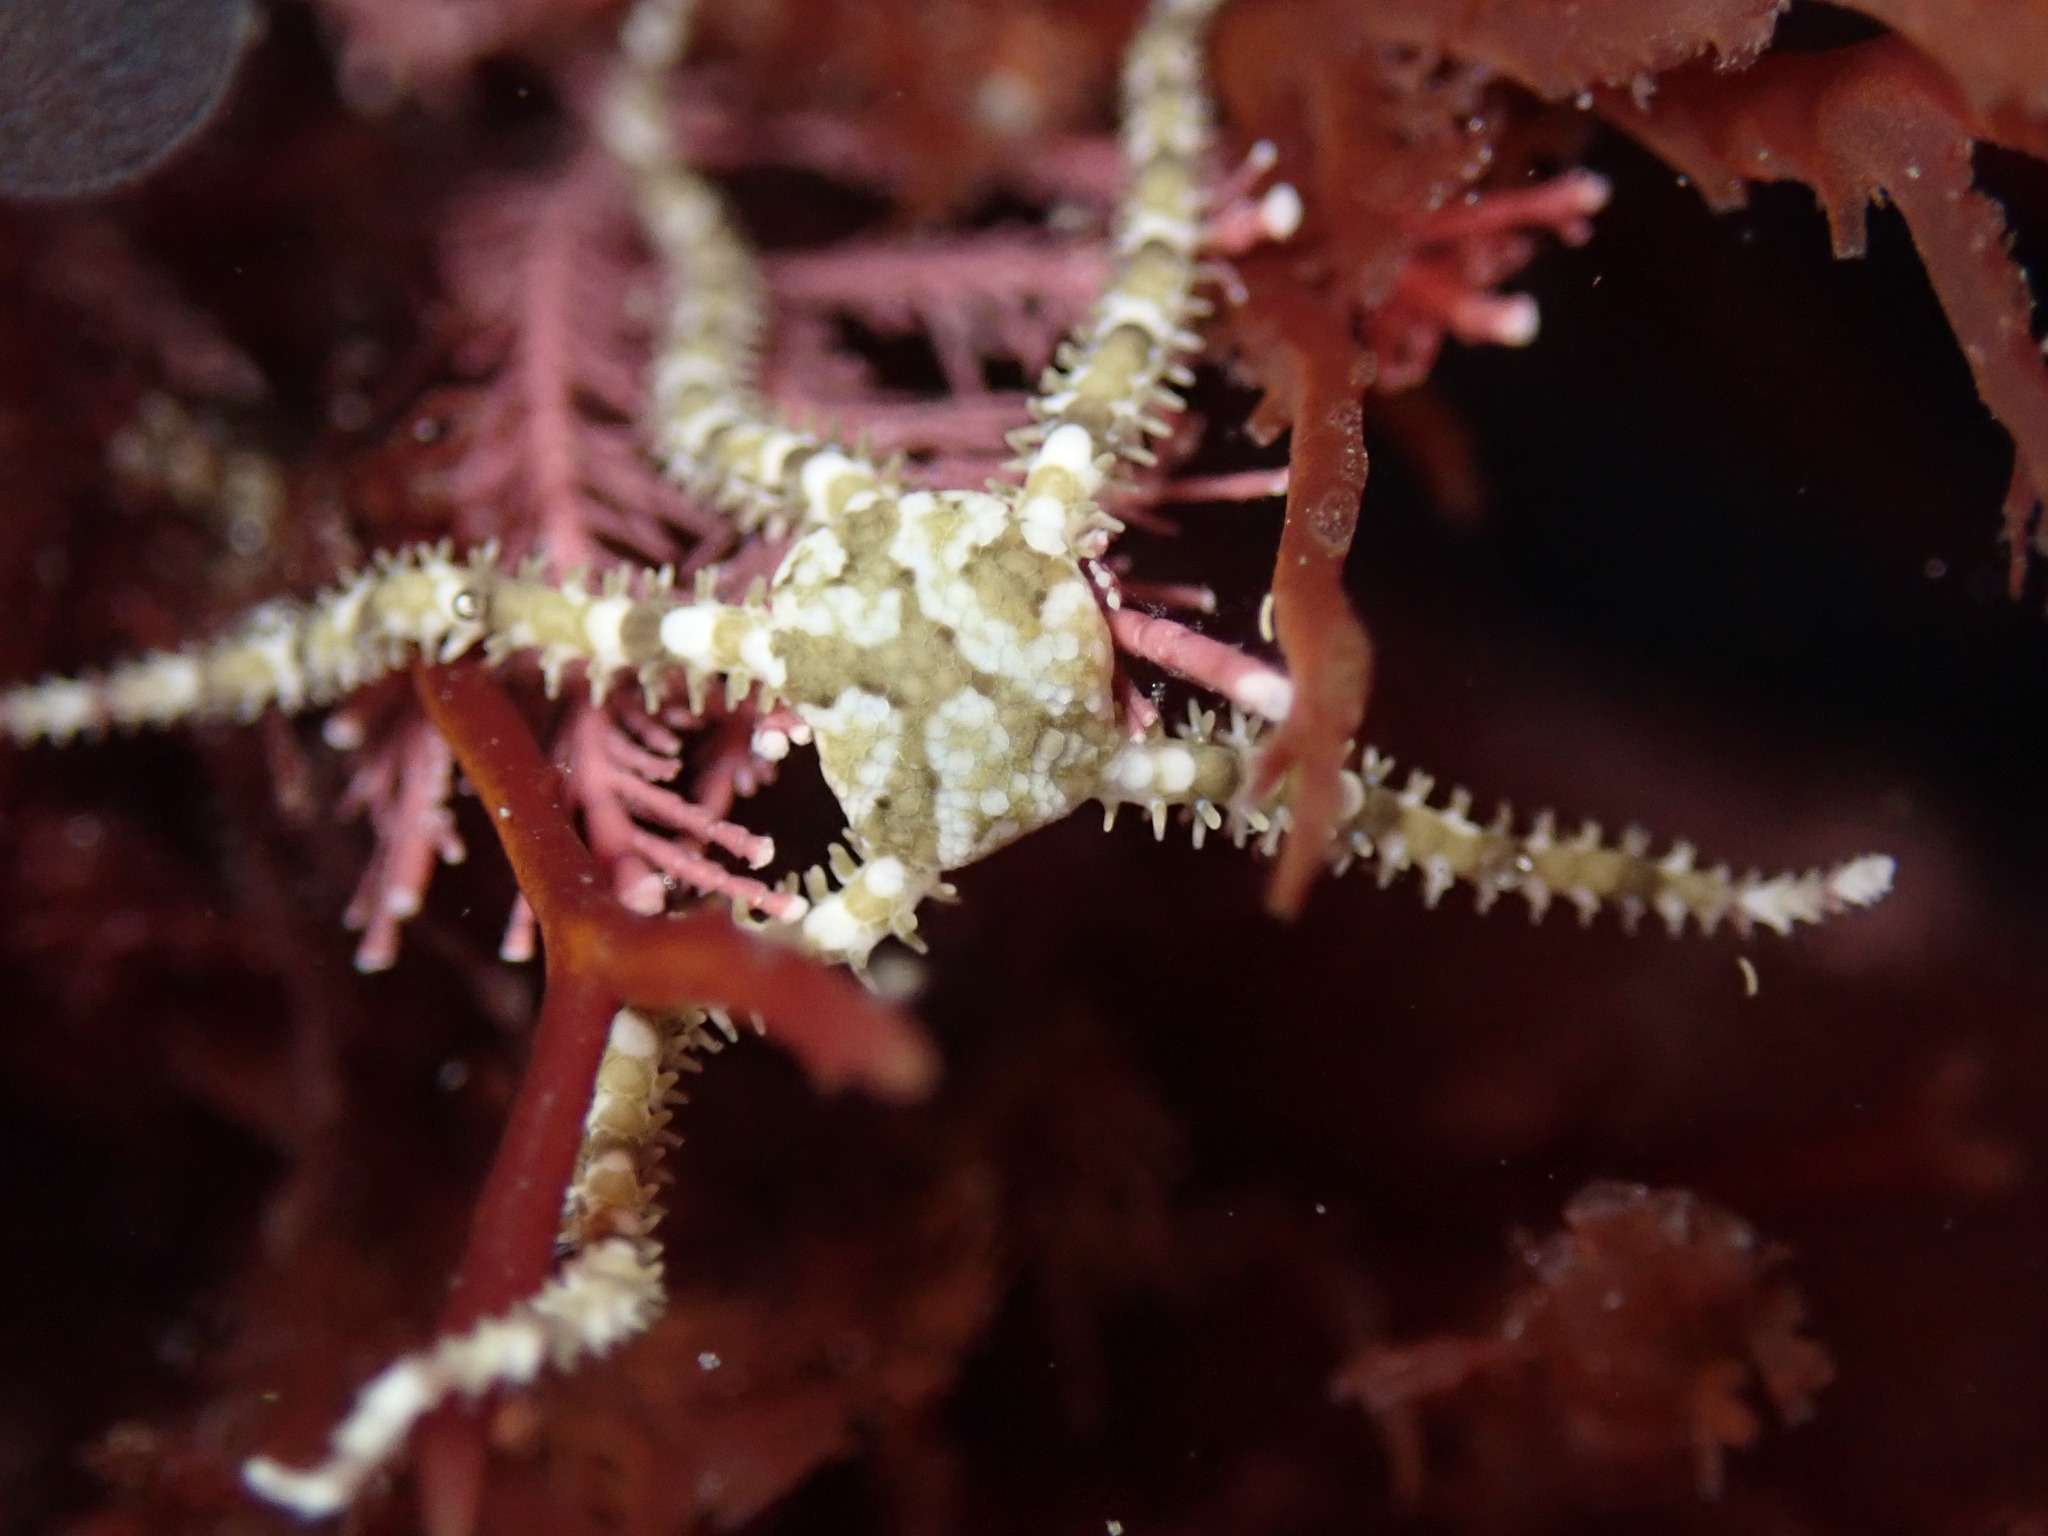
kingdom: Animalia
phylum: Echinodermata
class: Ophiuroidea
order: Amphilepidida
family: Ophionereididae
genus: Ophionereis
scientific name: Ophionereis diabloensis
